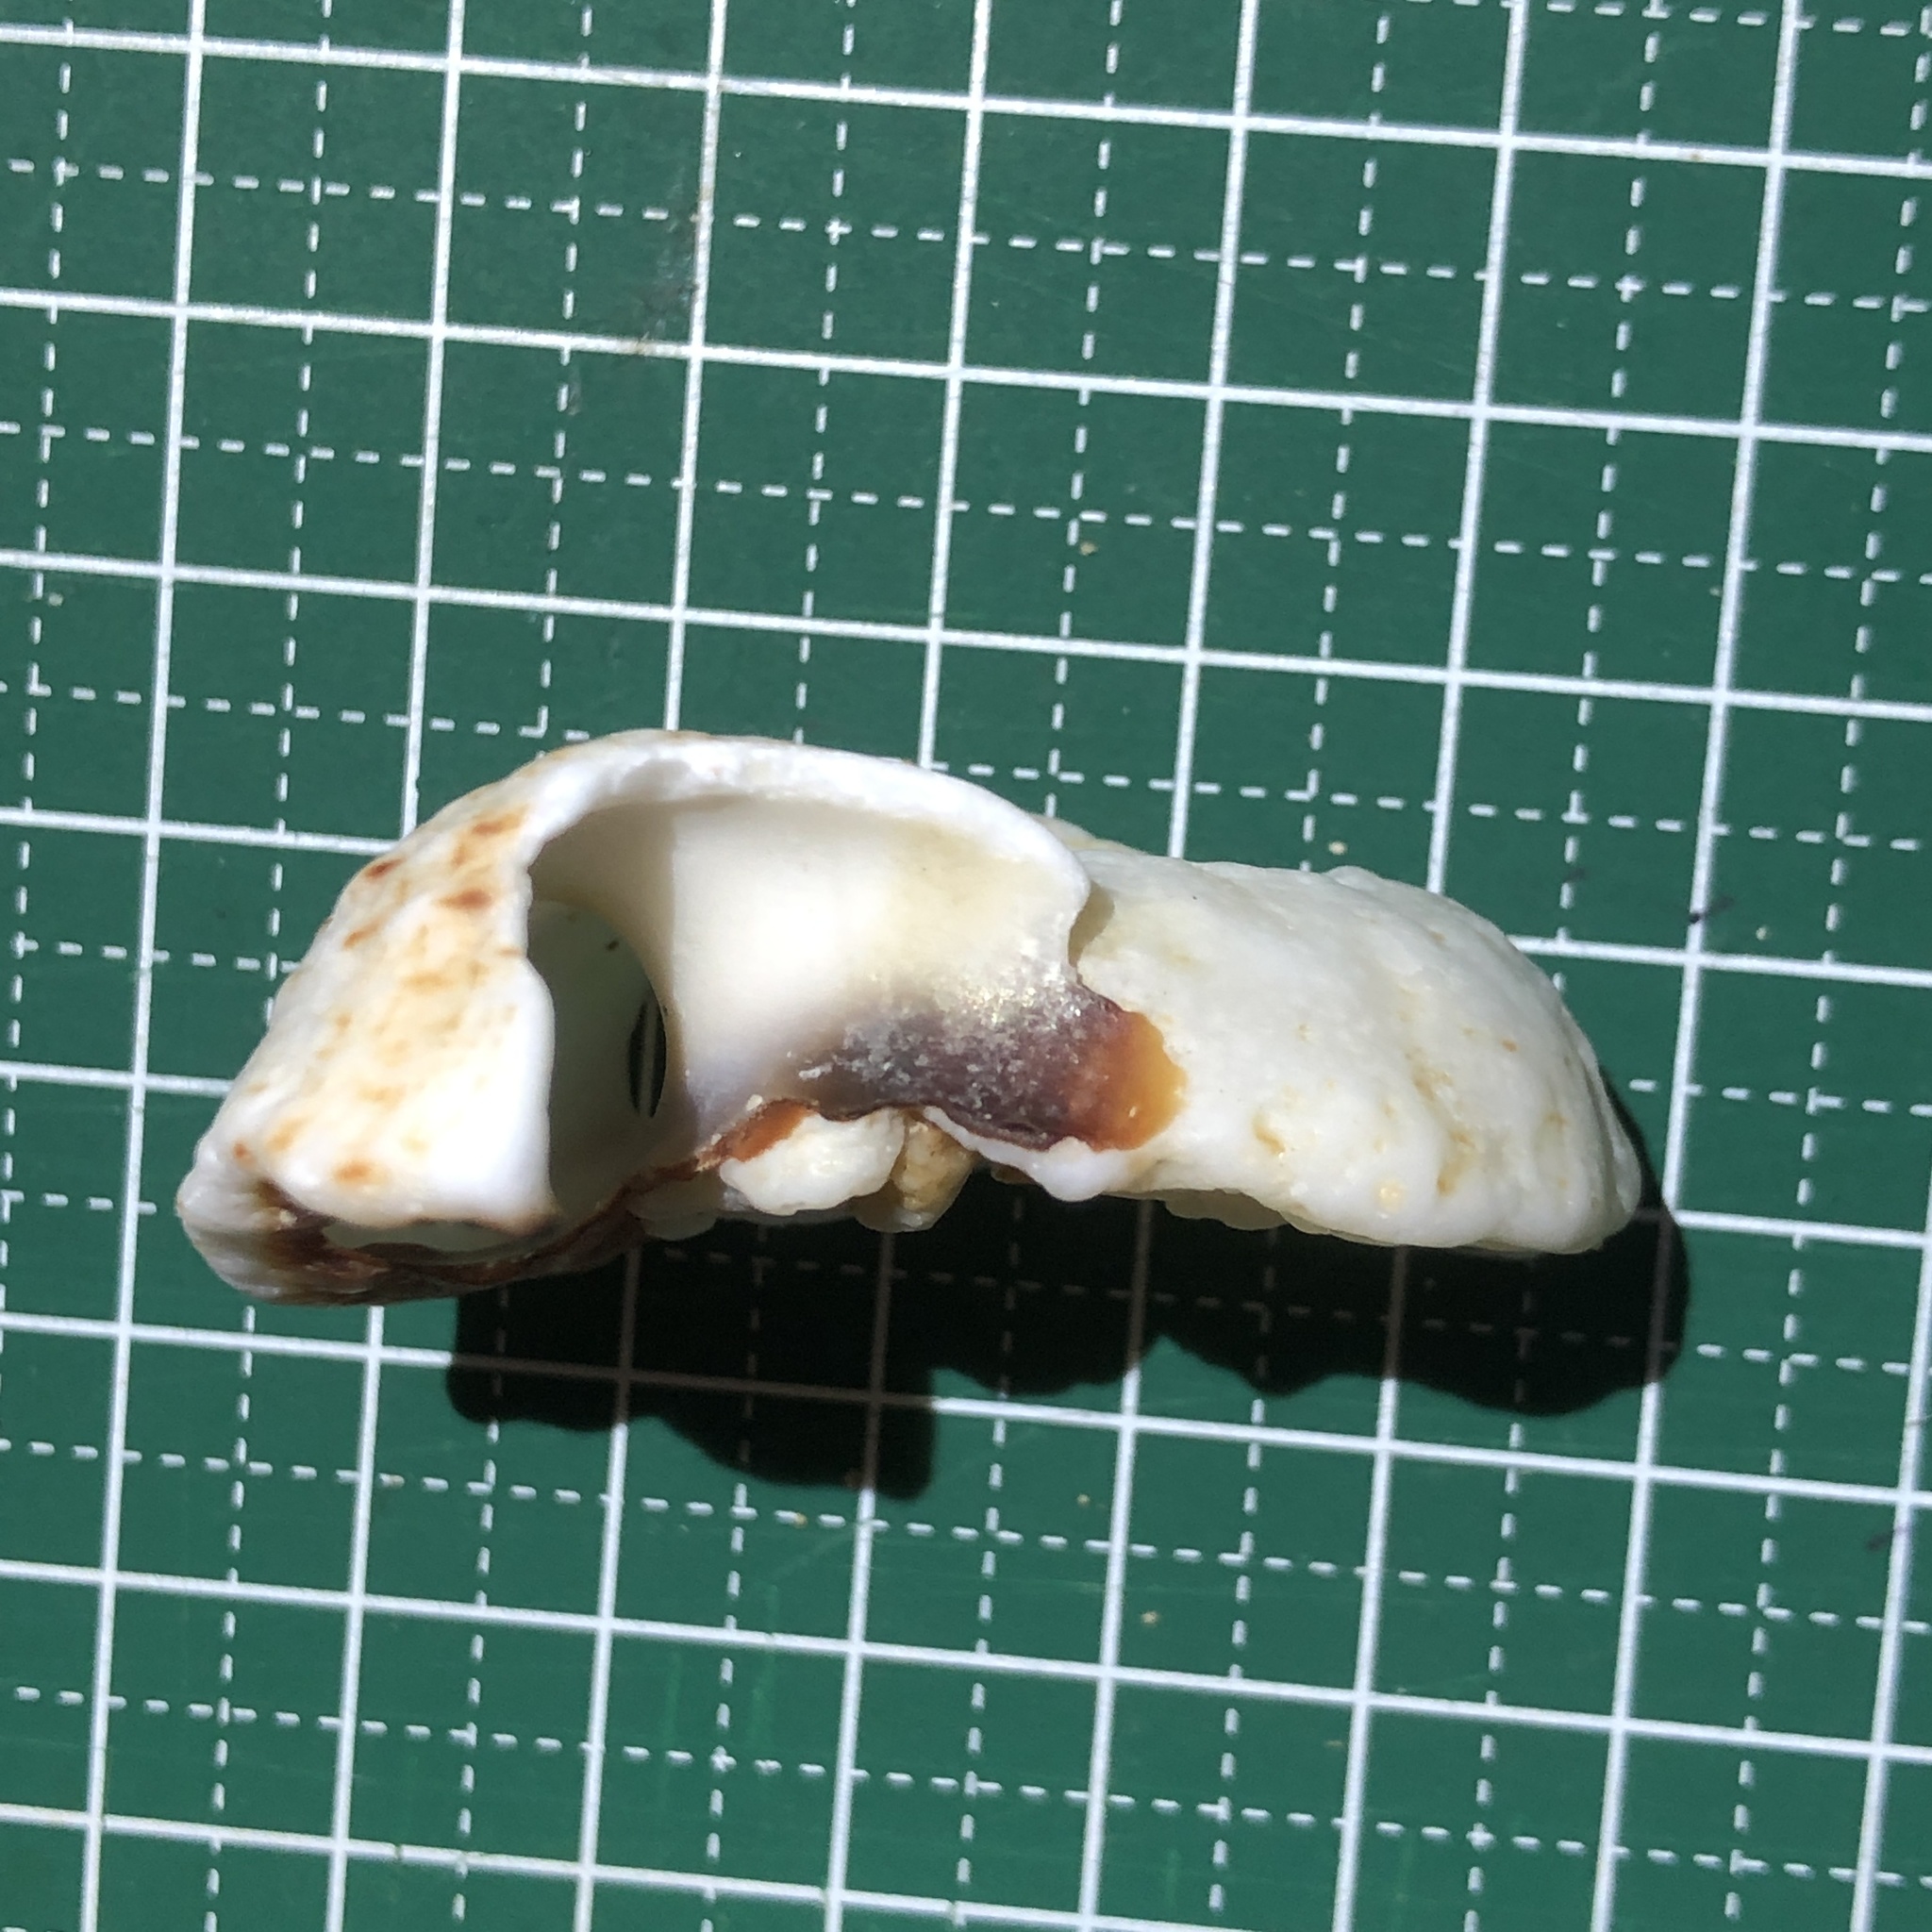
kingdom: Animalia
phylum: Mollusca
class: Gastropoda
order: Littorinimorpha
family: Vermetidae
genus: Thylacodes
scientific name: Thylacodes trimeresurus
